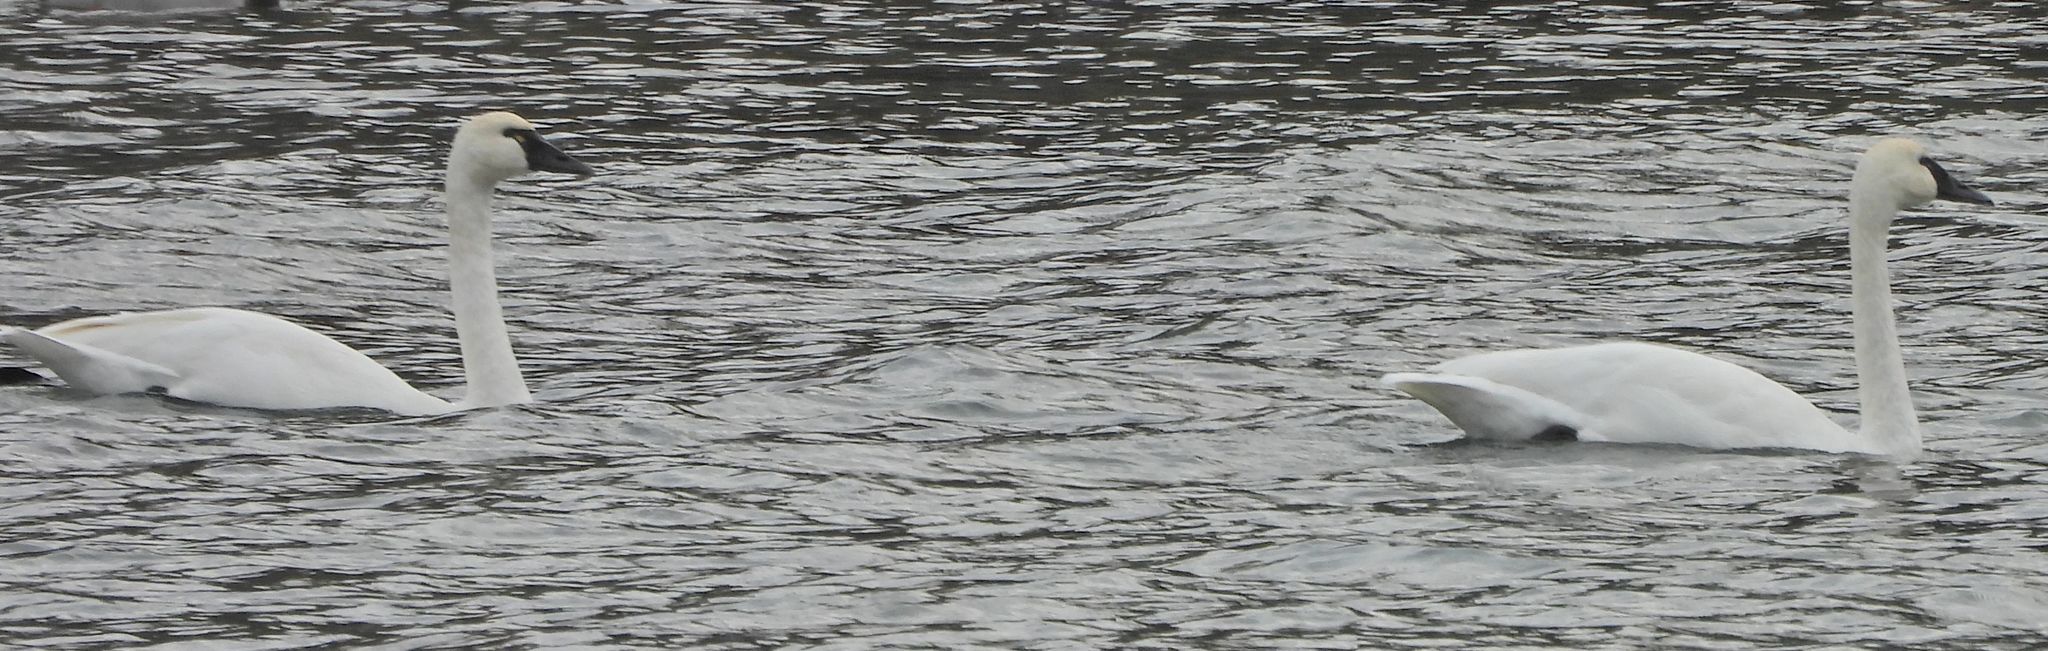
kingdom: Animalia
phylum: Chordata
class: Aves
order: Anseriformes
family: Anatidae
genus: Cygnus
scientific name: Cygnus columbianus
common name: Tundra swan
